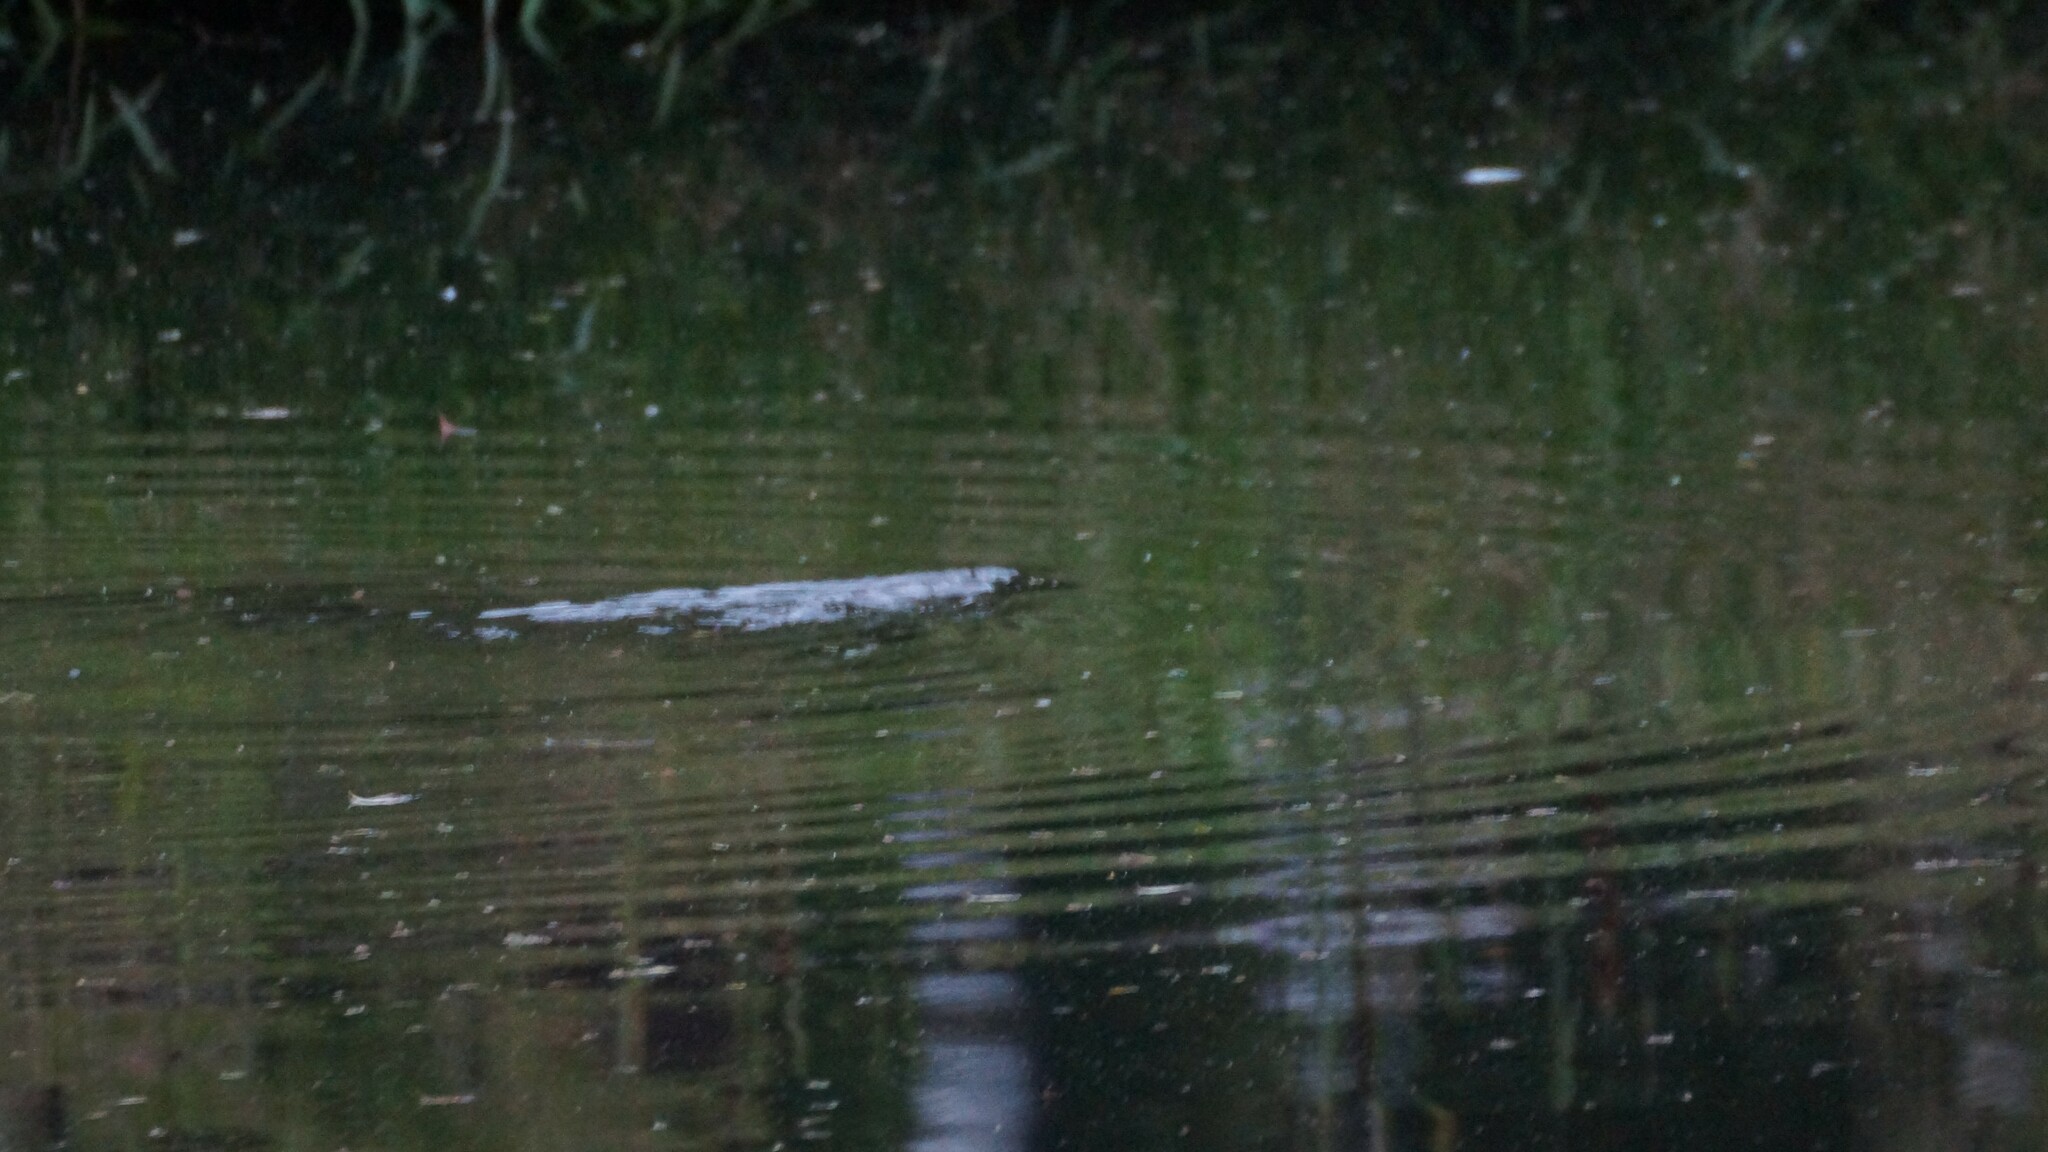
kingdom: Animalia
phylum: Chordata
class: Mammalia
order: Monotremata
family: Ornithorhynchidae
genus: Ornithorhynchus
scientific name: Ornithorhynchus anatinus
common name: Platypus
